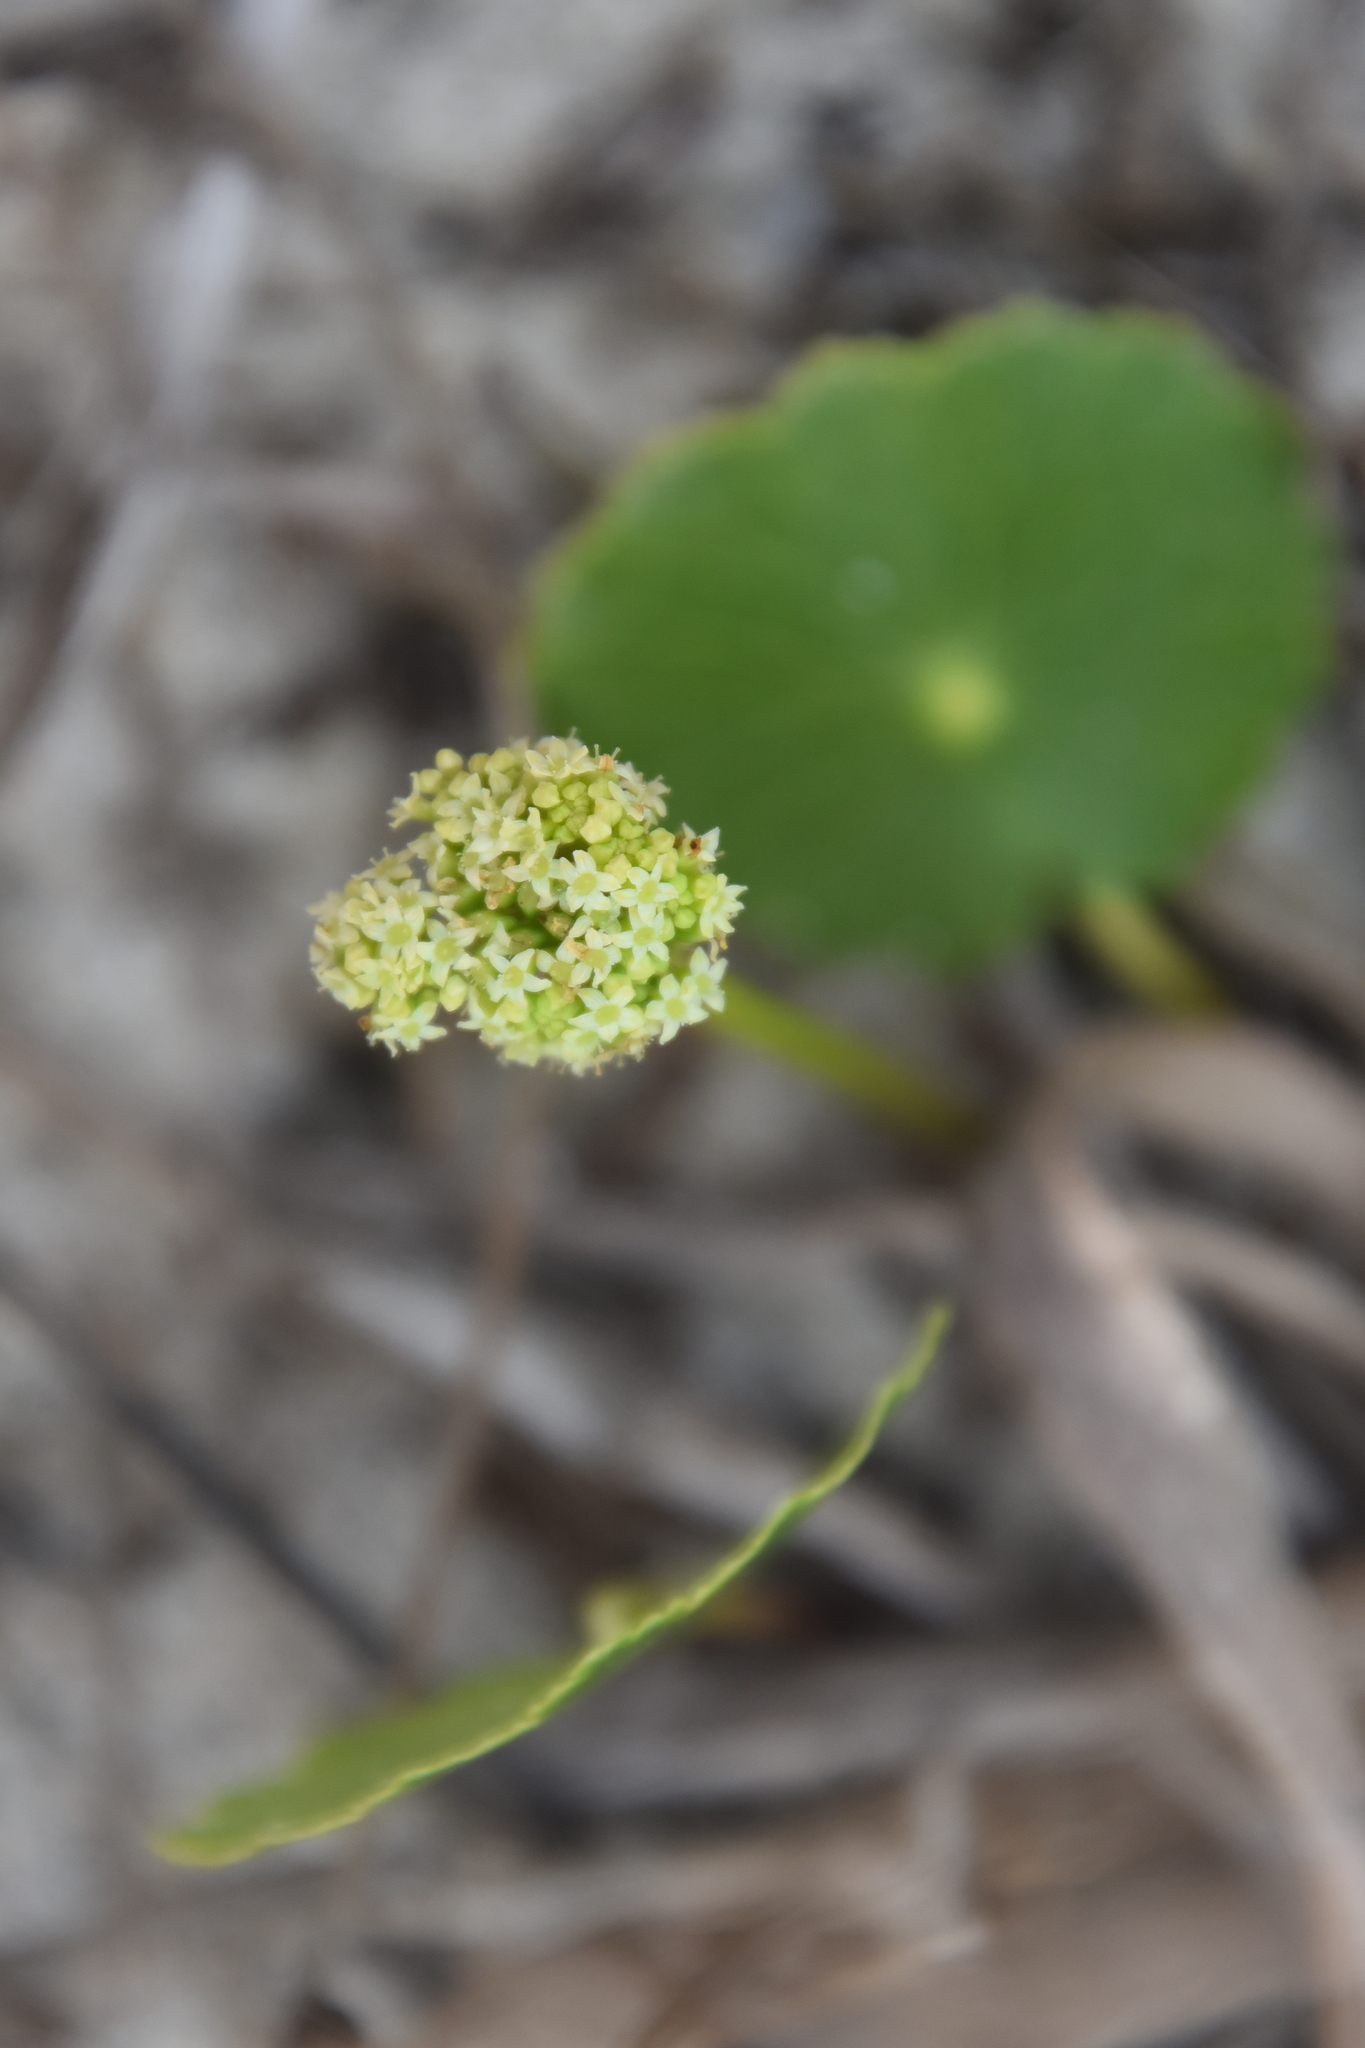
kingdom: Plantae
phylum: Tracheophyta
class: Magnoliopsida
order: Apiales
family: Araliaceae
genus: Hydrocotyle
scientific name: Hydrocotyle bonariensis
